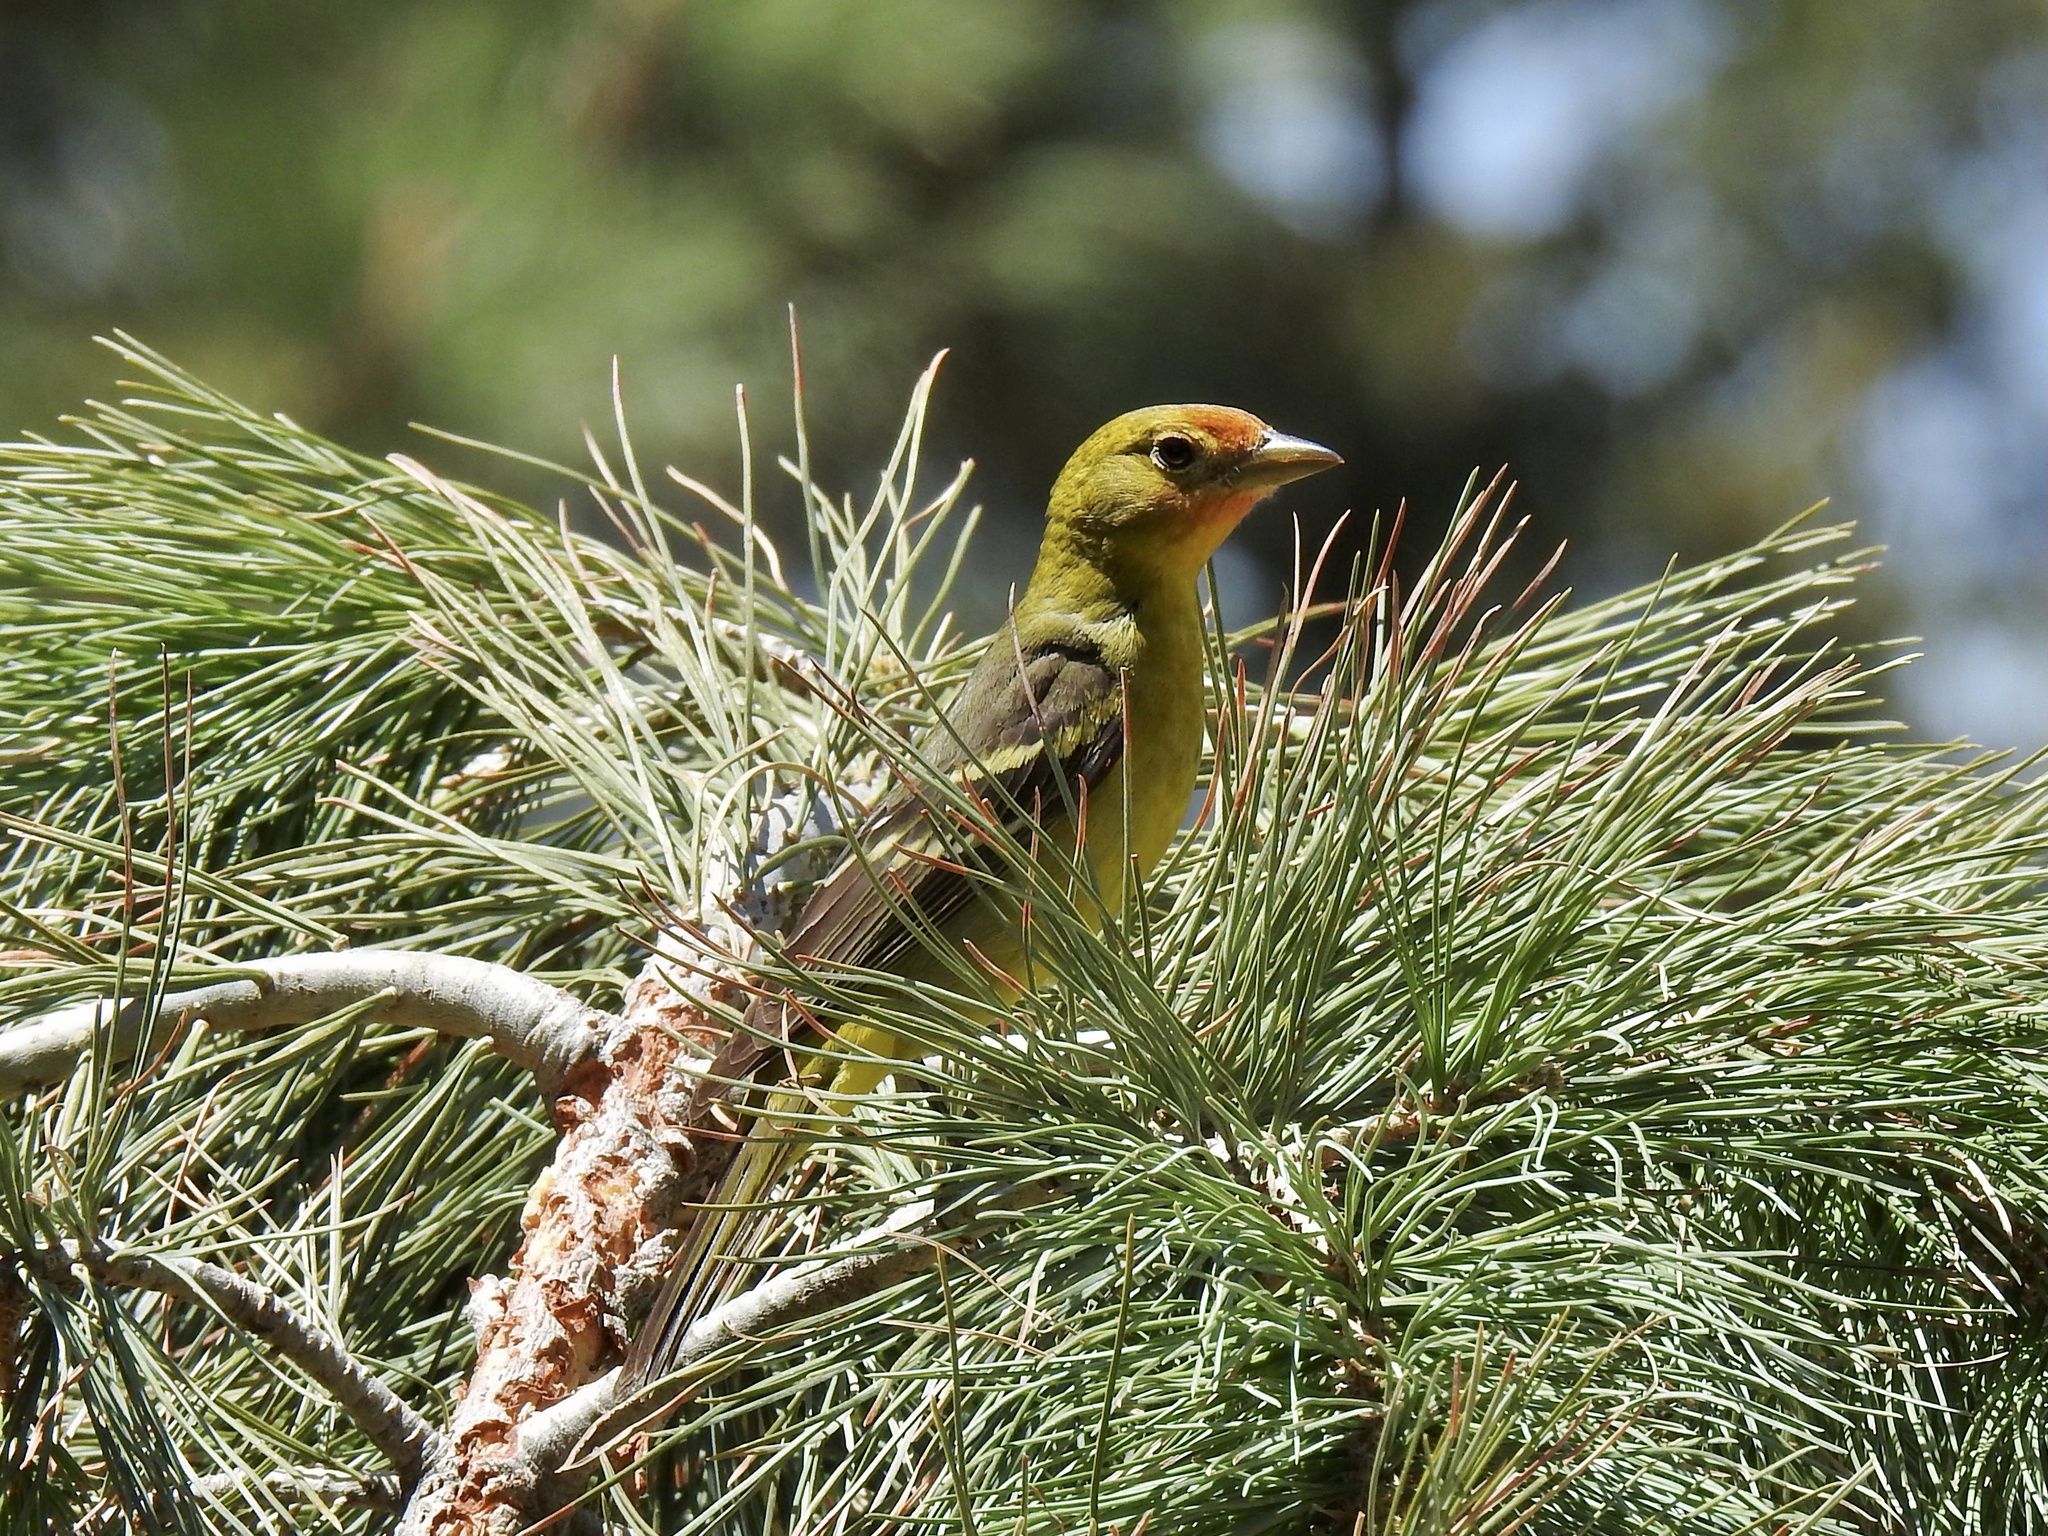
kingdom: Animalia
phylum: Chordata
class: Aves
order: Passeriformes
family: Cardinalidae
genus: Piranga
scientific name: Piranga ludoviciana
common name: Western tanager
